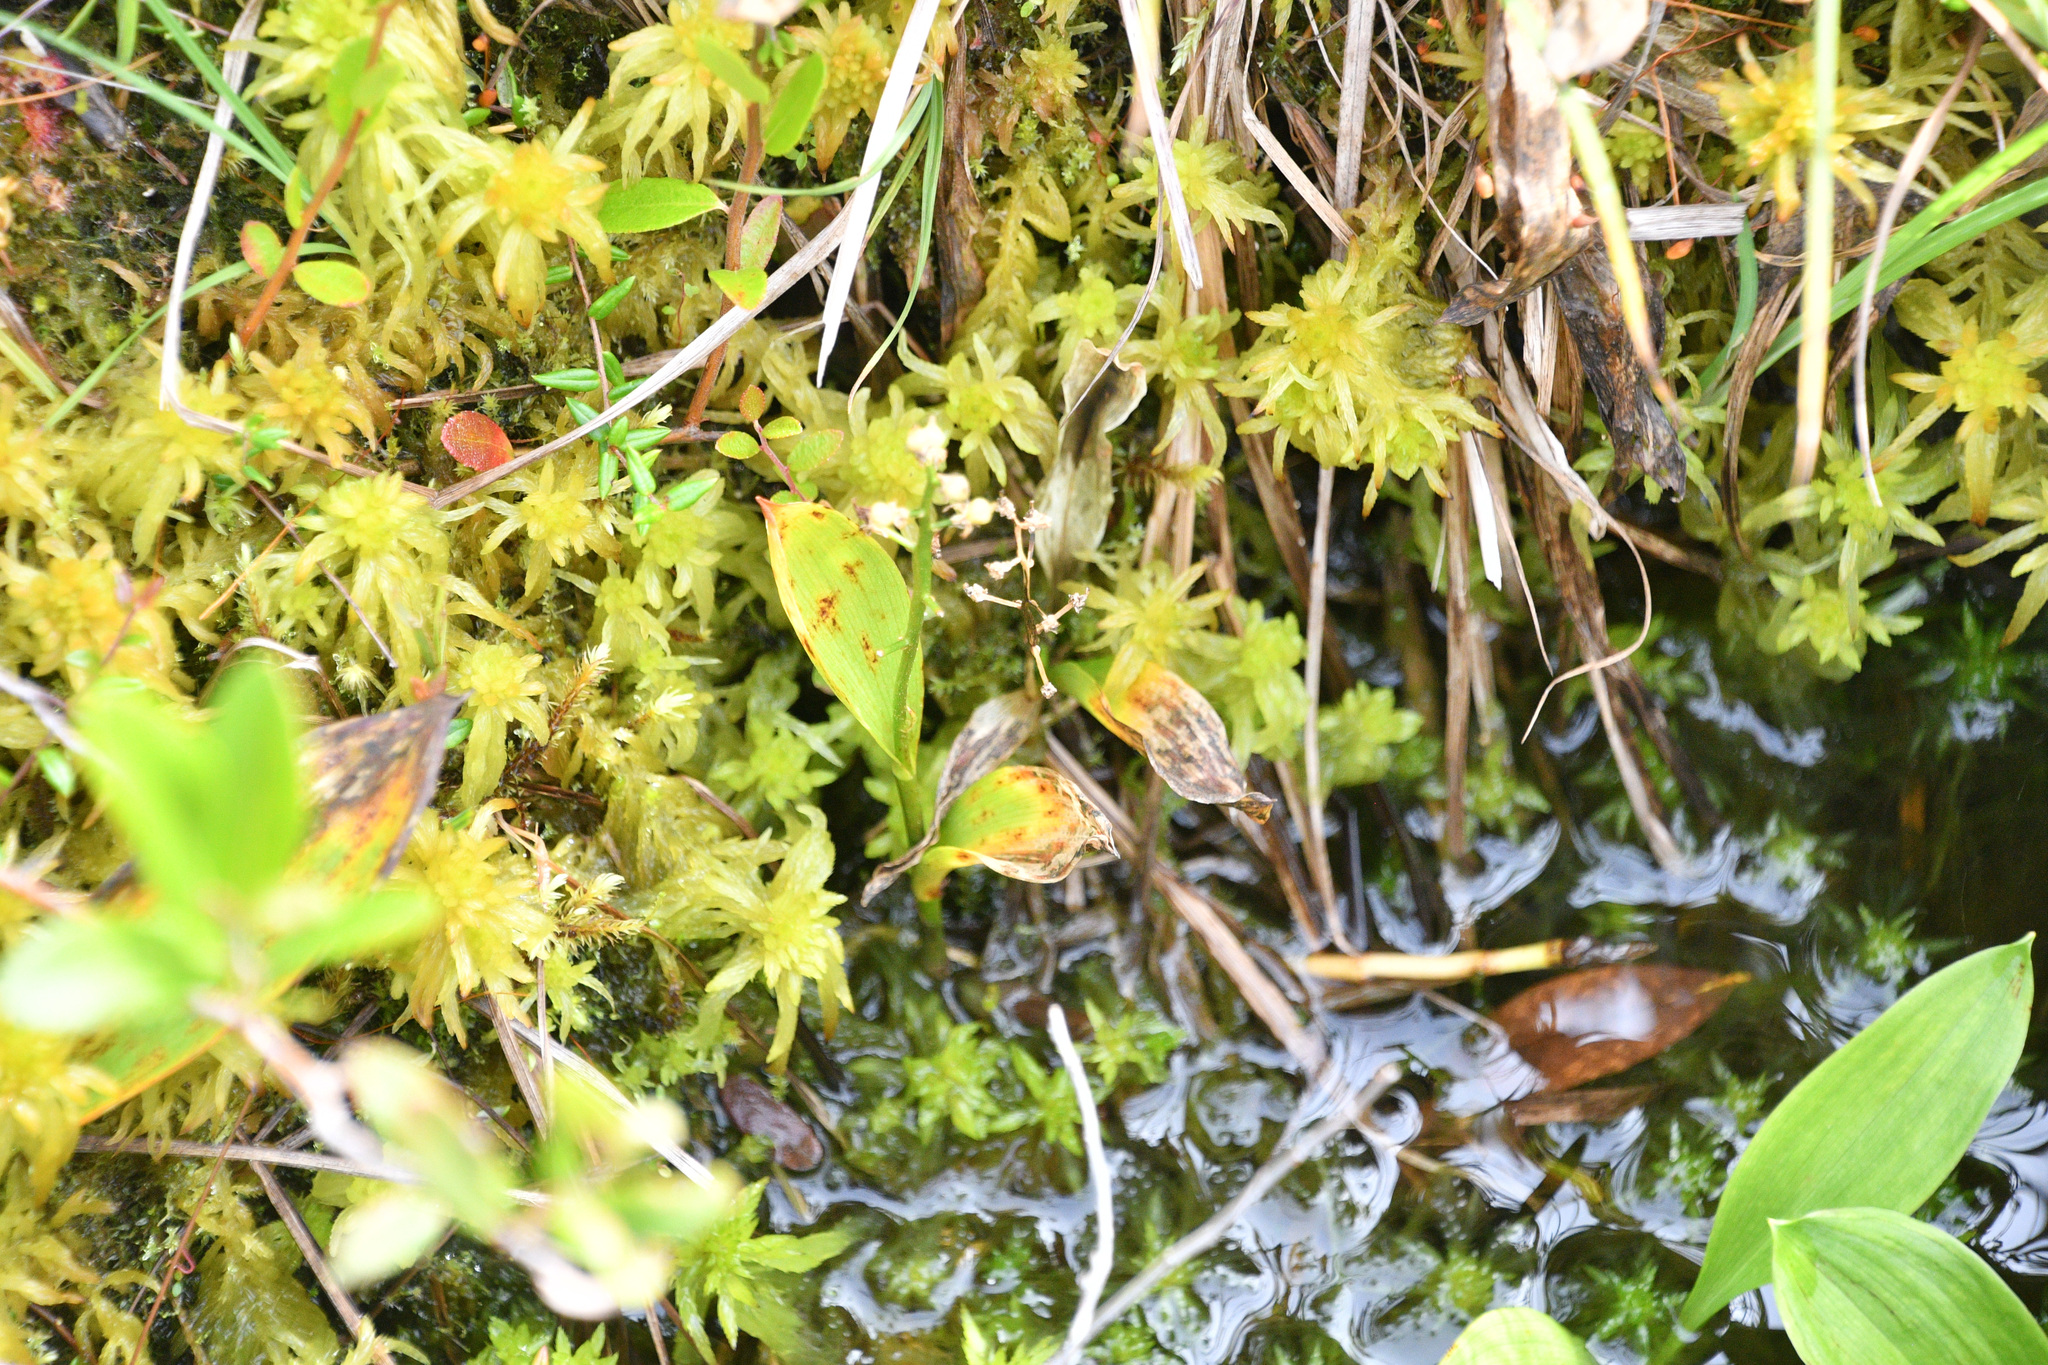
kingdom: Plantae
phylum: Tracheophyta
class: Liliopsida
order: Asparagales
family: Asparagaceae
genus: Maianthemum
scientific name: Maianthemum trifolium
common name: Swamp false solomon's seal
